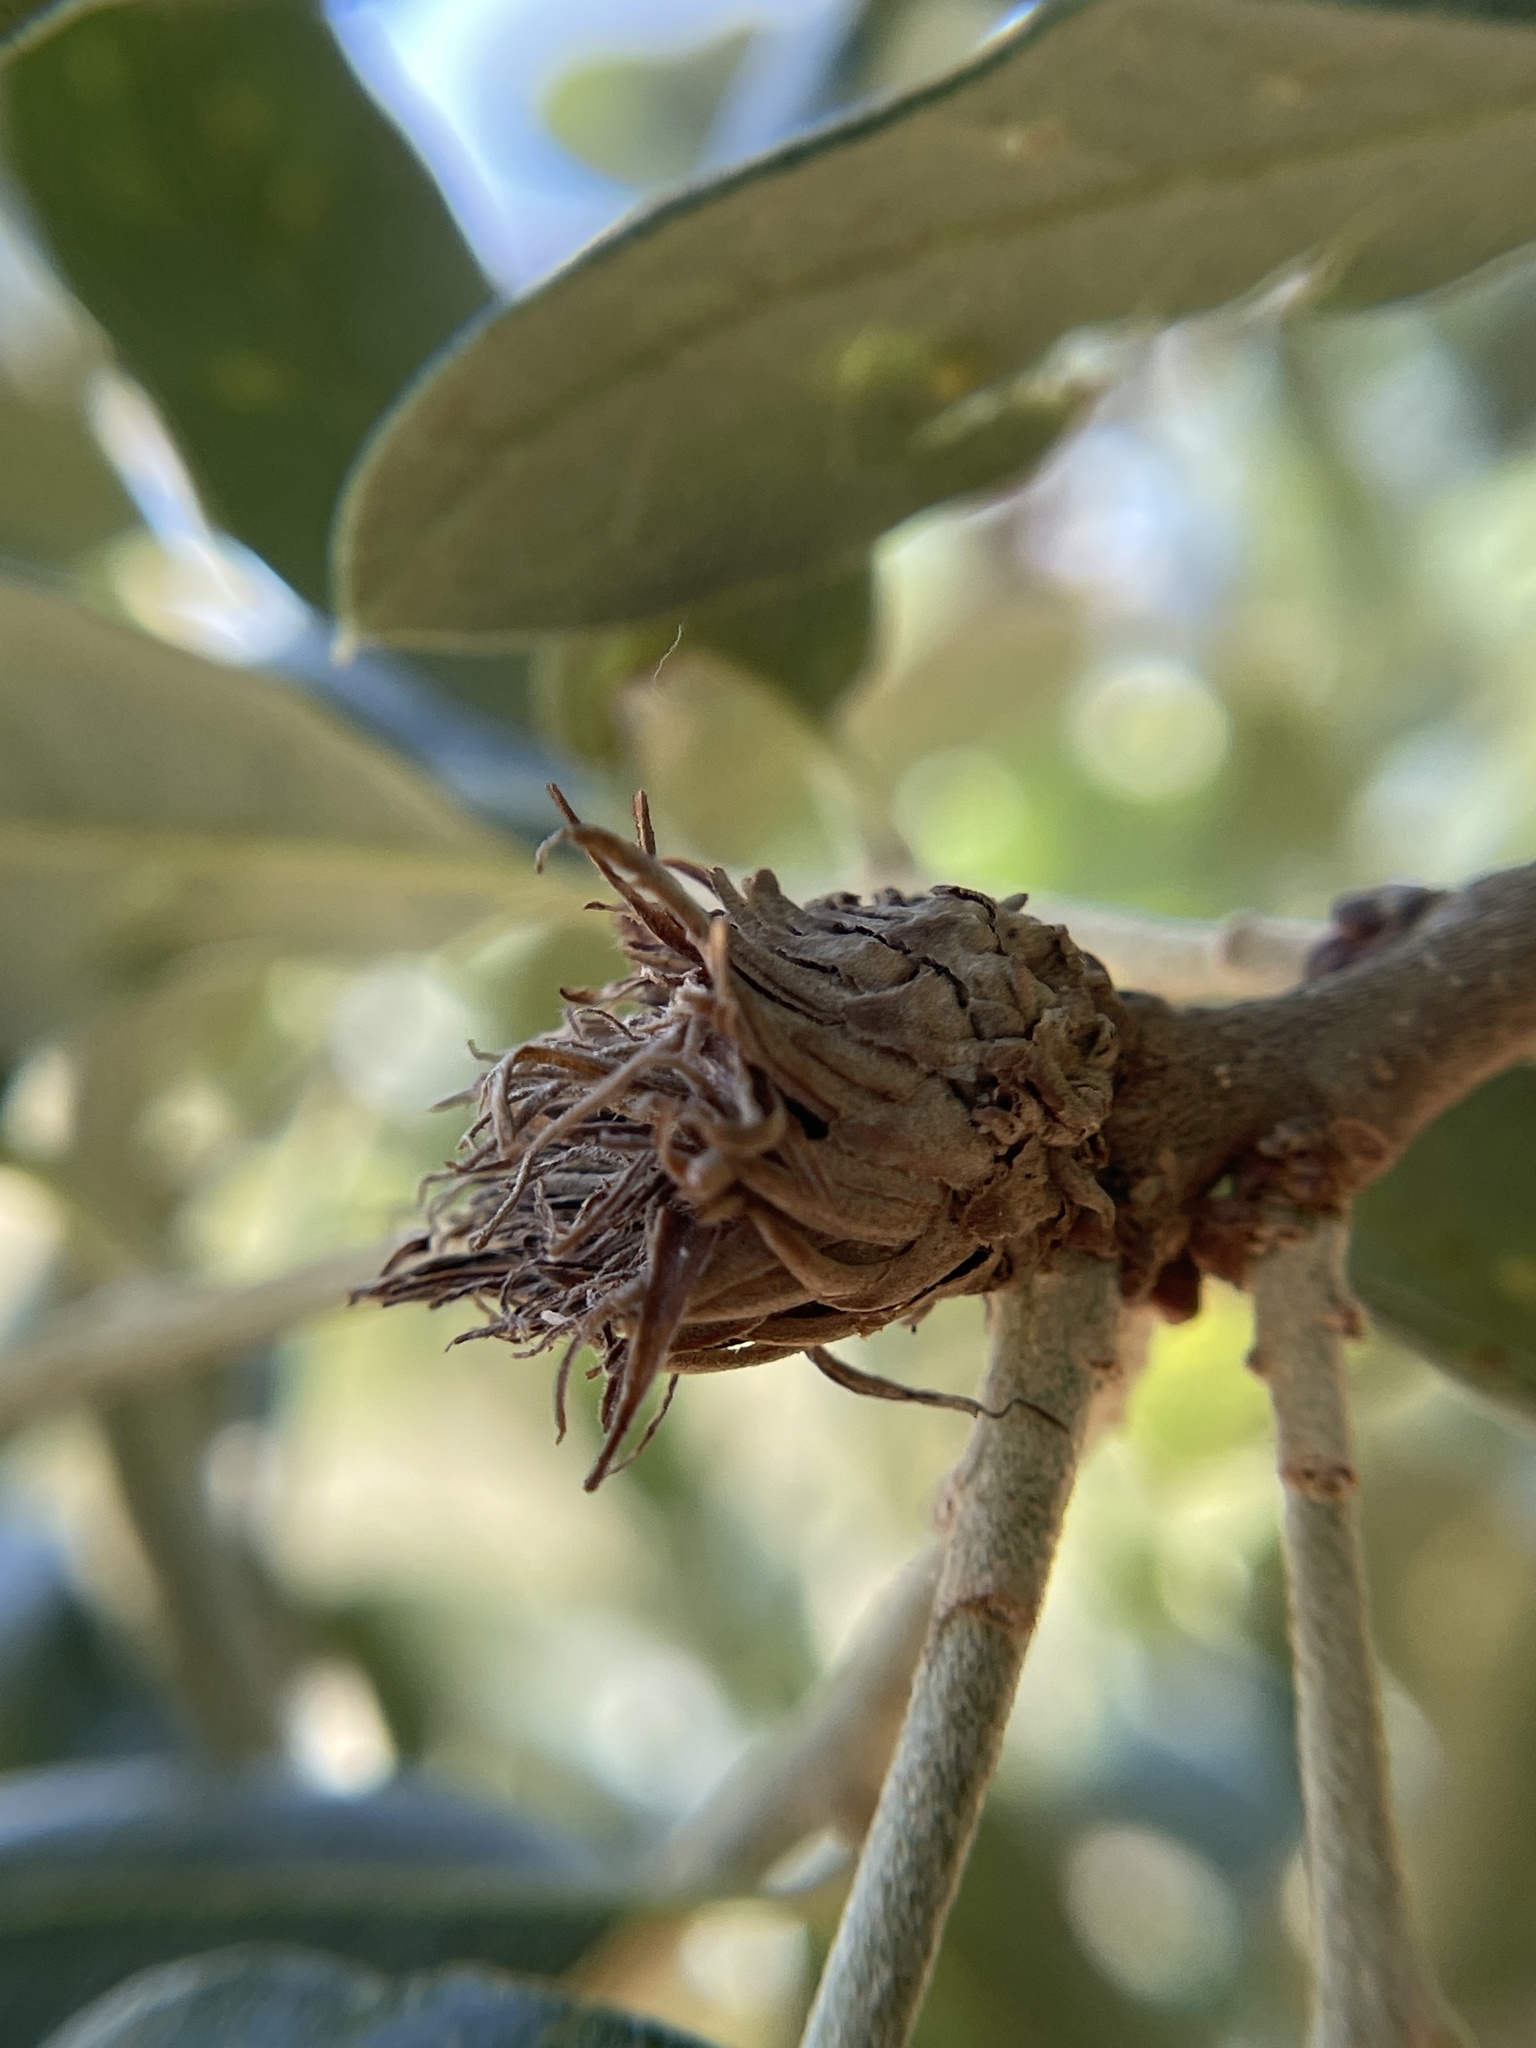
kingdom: Animalia
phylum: Arthropoda
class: Insecta
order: Hymenoptera
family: Cynipidae
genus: Andricus
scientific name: Andricus quercusfoliatus
